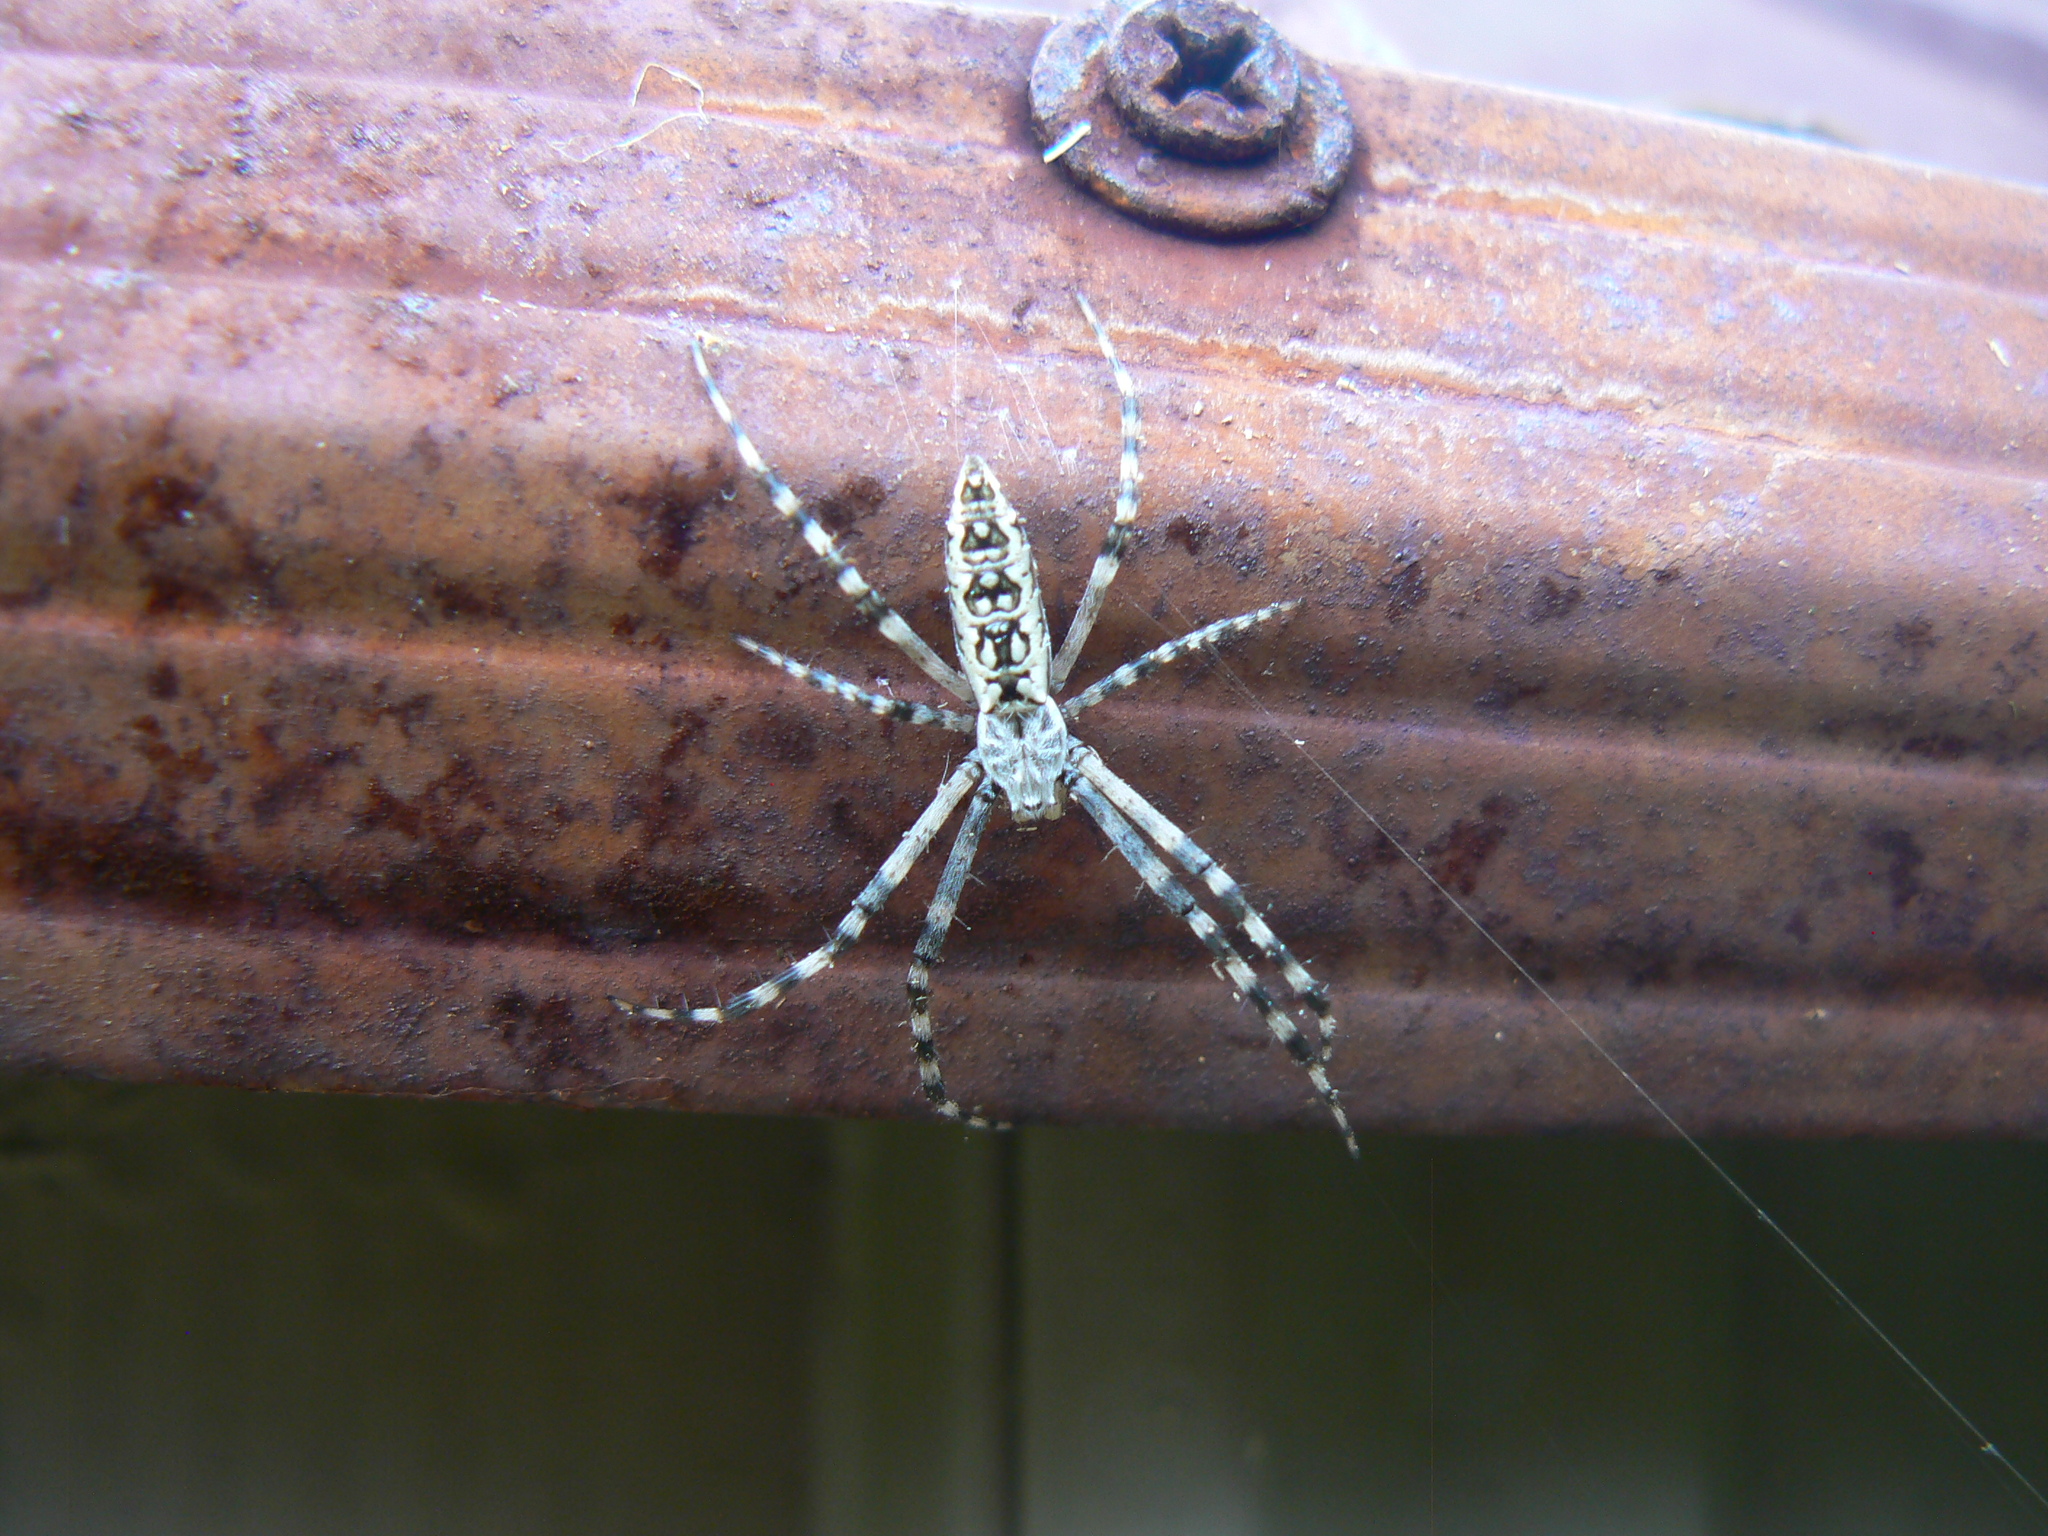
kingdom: Animalia
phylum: Arthropoda
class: Arachnida
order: Araneae
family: Araneidae
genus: Argiope
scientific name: Argiope aurantia
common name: Orb weavers
